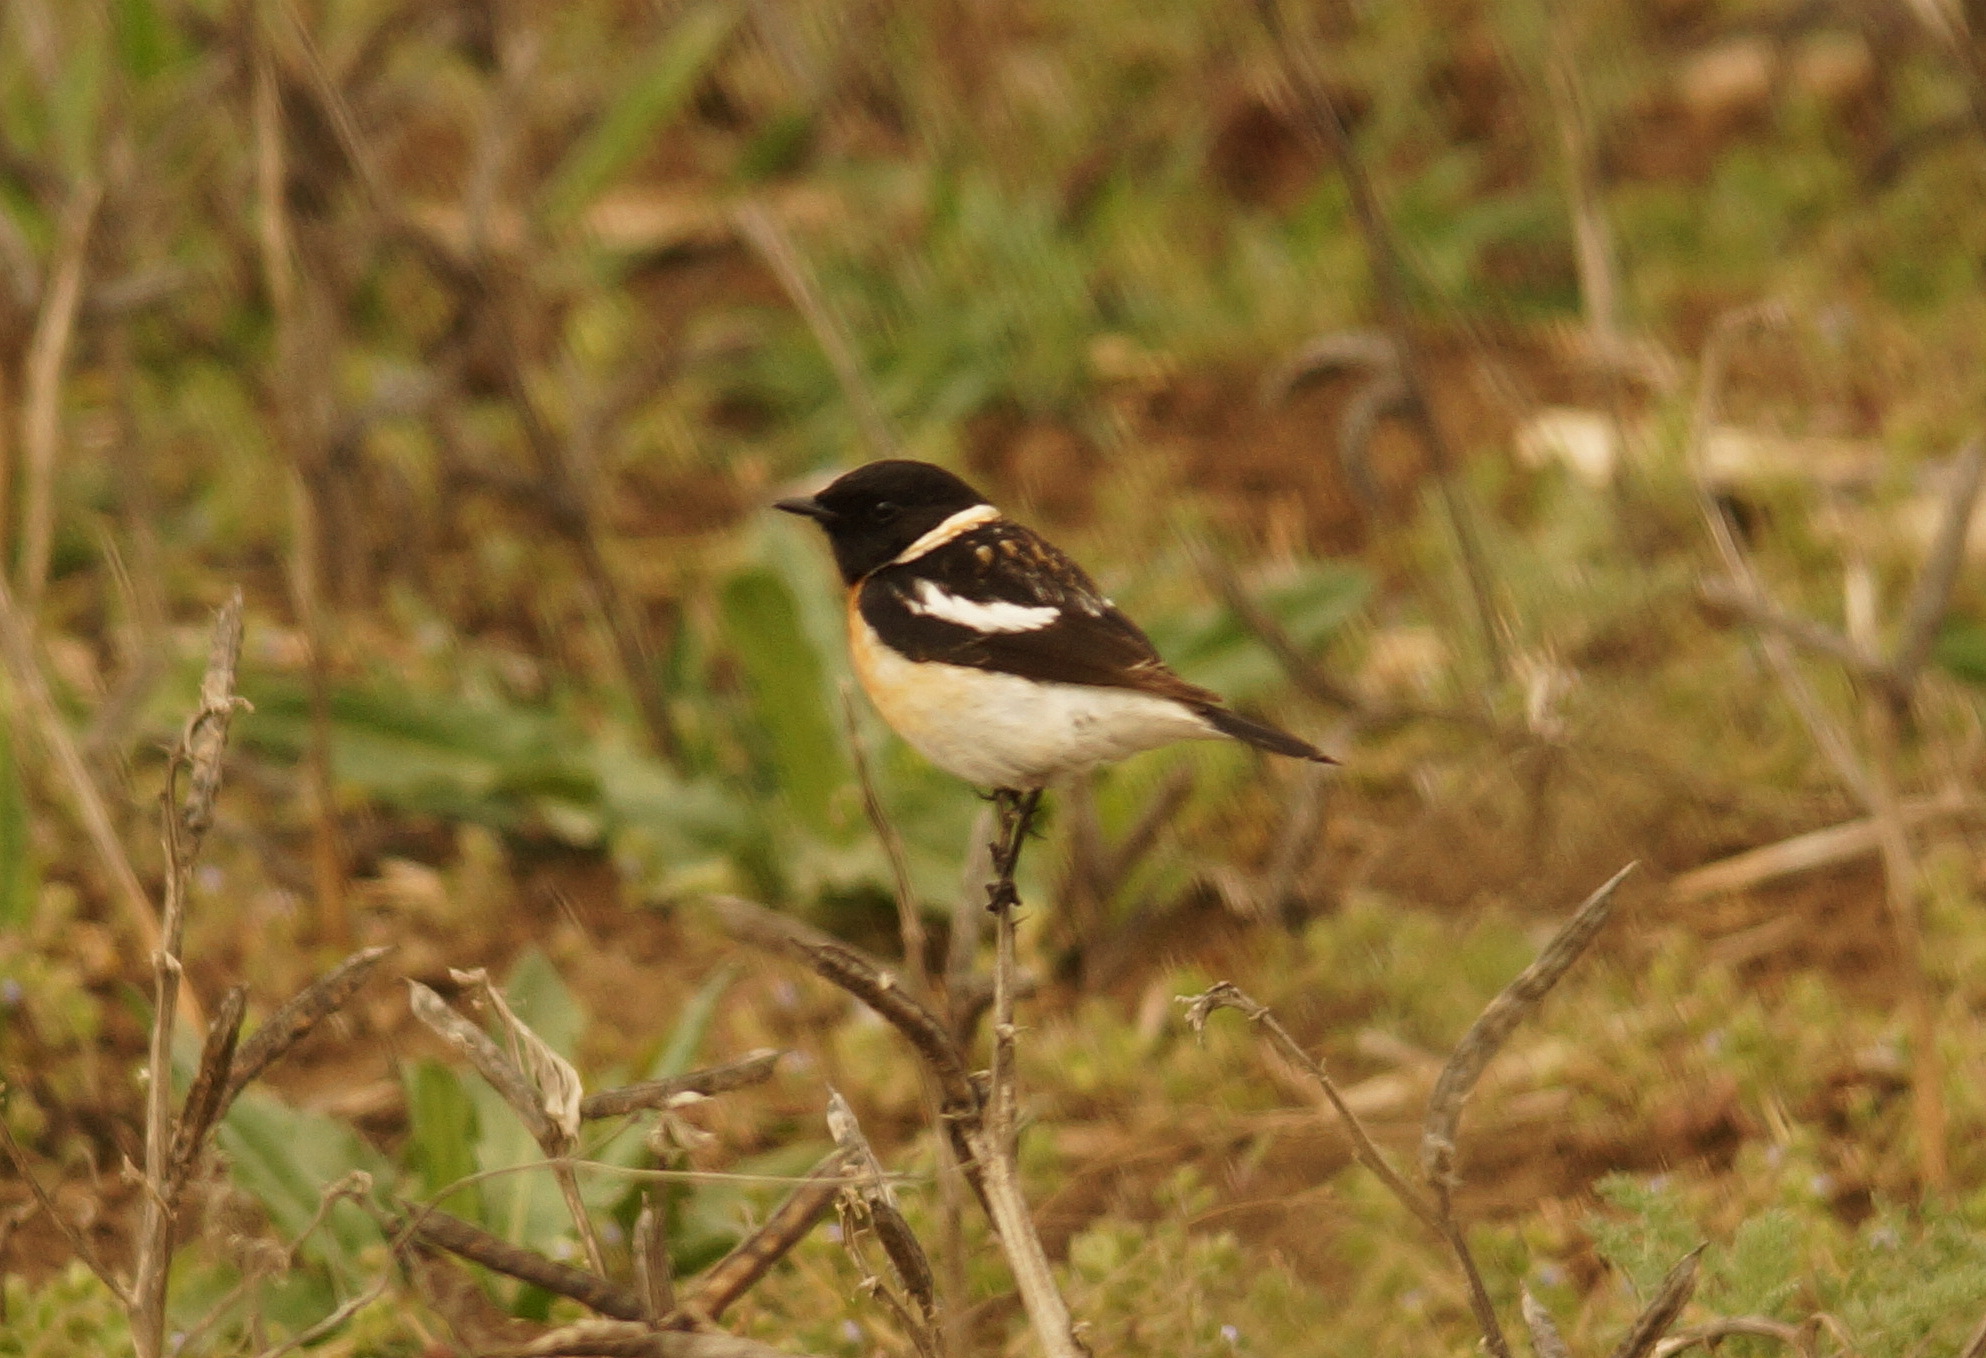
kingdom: Animalia
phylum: Chordata
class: Aves
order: Passeriformes
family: Muscicapidae
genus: Saxicola
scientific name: Saxicola maurus
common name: Siberian stonechat
